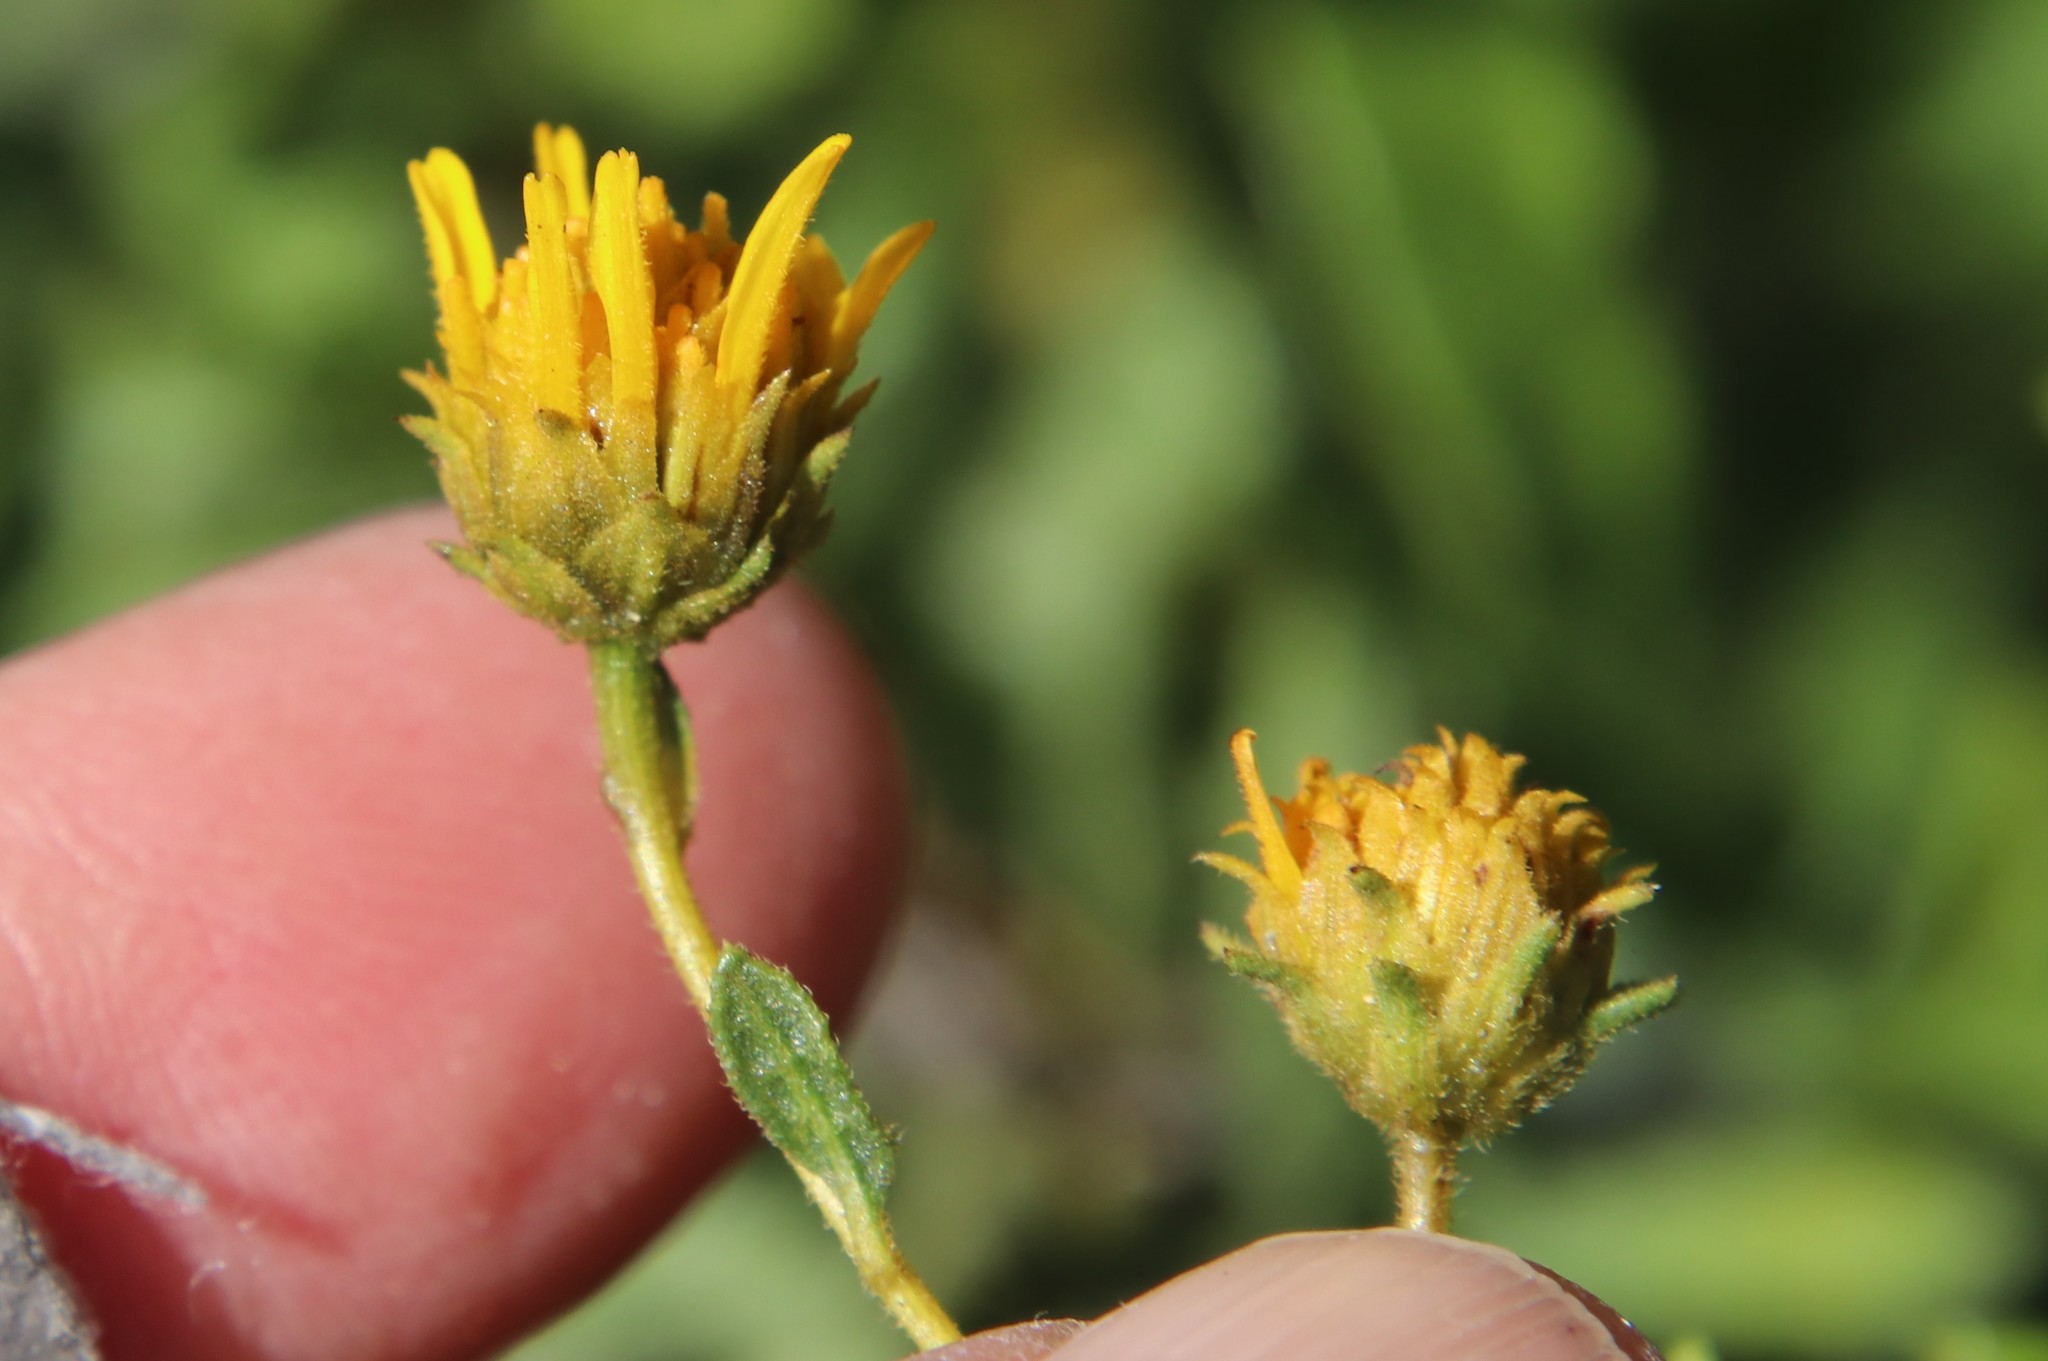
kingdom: Plantae
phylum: Tracheophyta
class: Magnoliopsida
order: Asterales
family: Asteraceae
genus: Bahiopsis
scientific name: Bahiopsis laciniata
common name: San diego county viguiera
